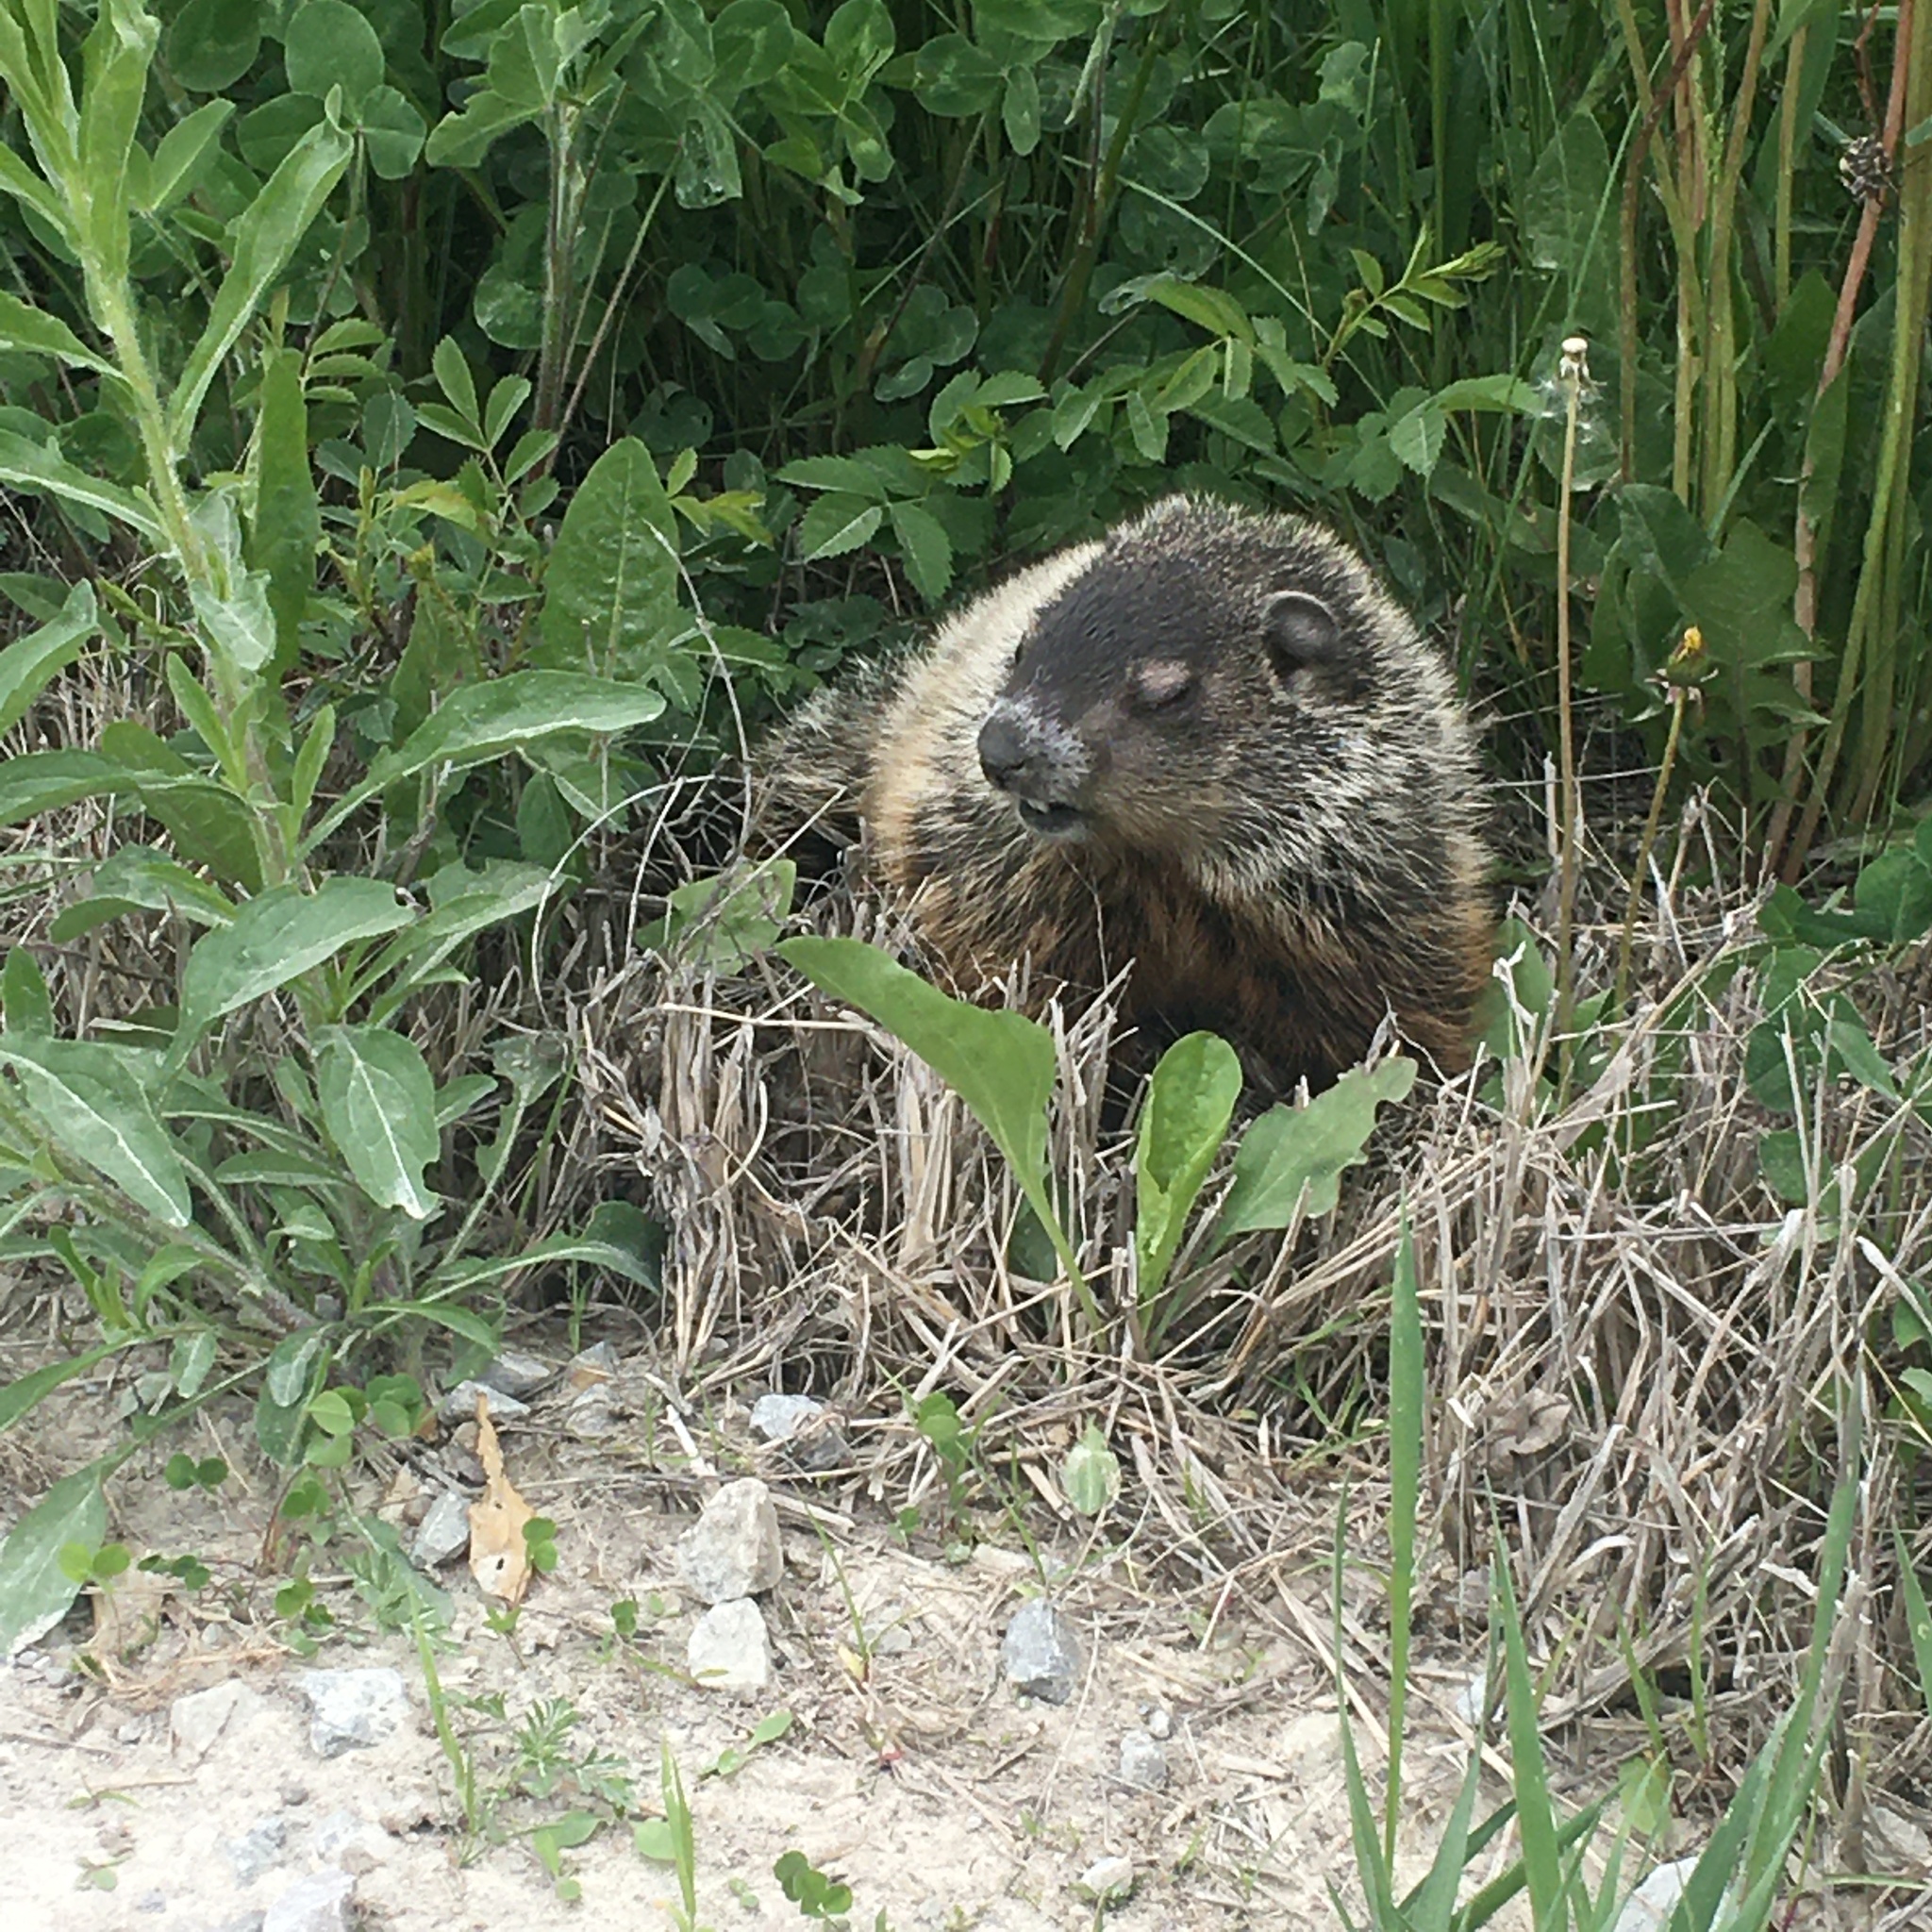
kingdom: Animalia
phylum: Chordata
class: Mammalia
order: Rodentia
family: Sciuridae
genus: Marmota
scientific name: Marmota monax
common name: Groundhog
